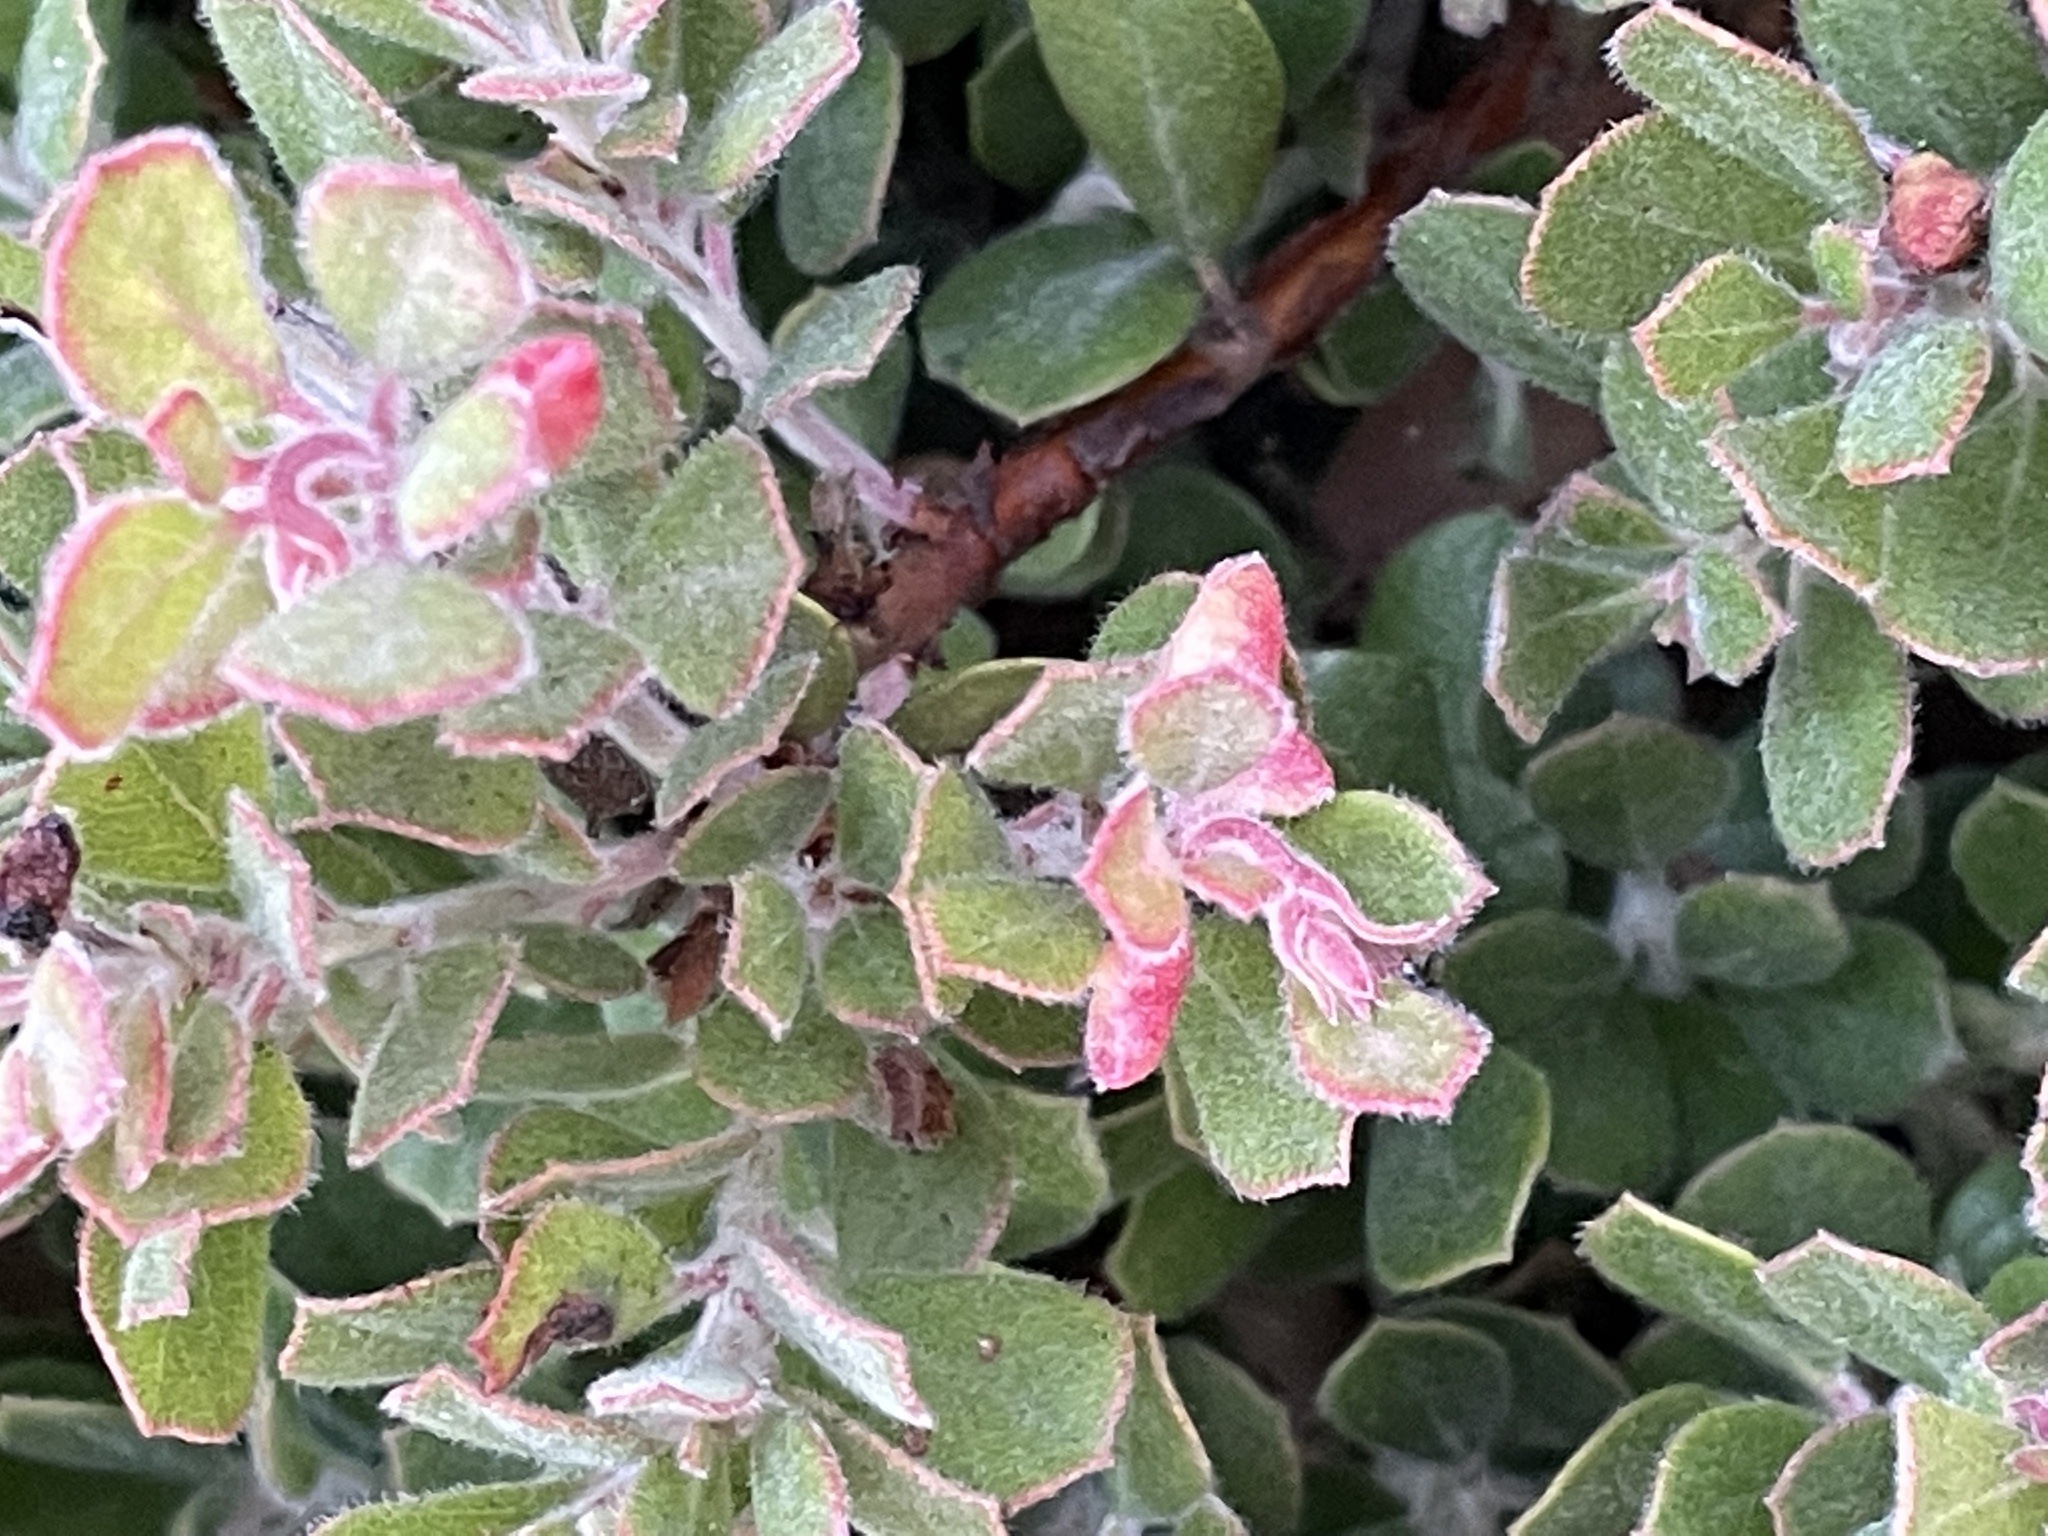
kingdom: Animalia
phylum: Arthropoda
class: Insecta
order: Hemiptera
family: Aphididae
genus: Tamalia
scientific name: Tamalia coweni
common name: Manzanita leafgall aphid
